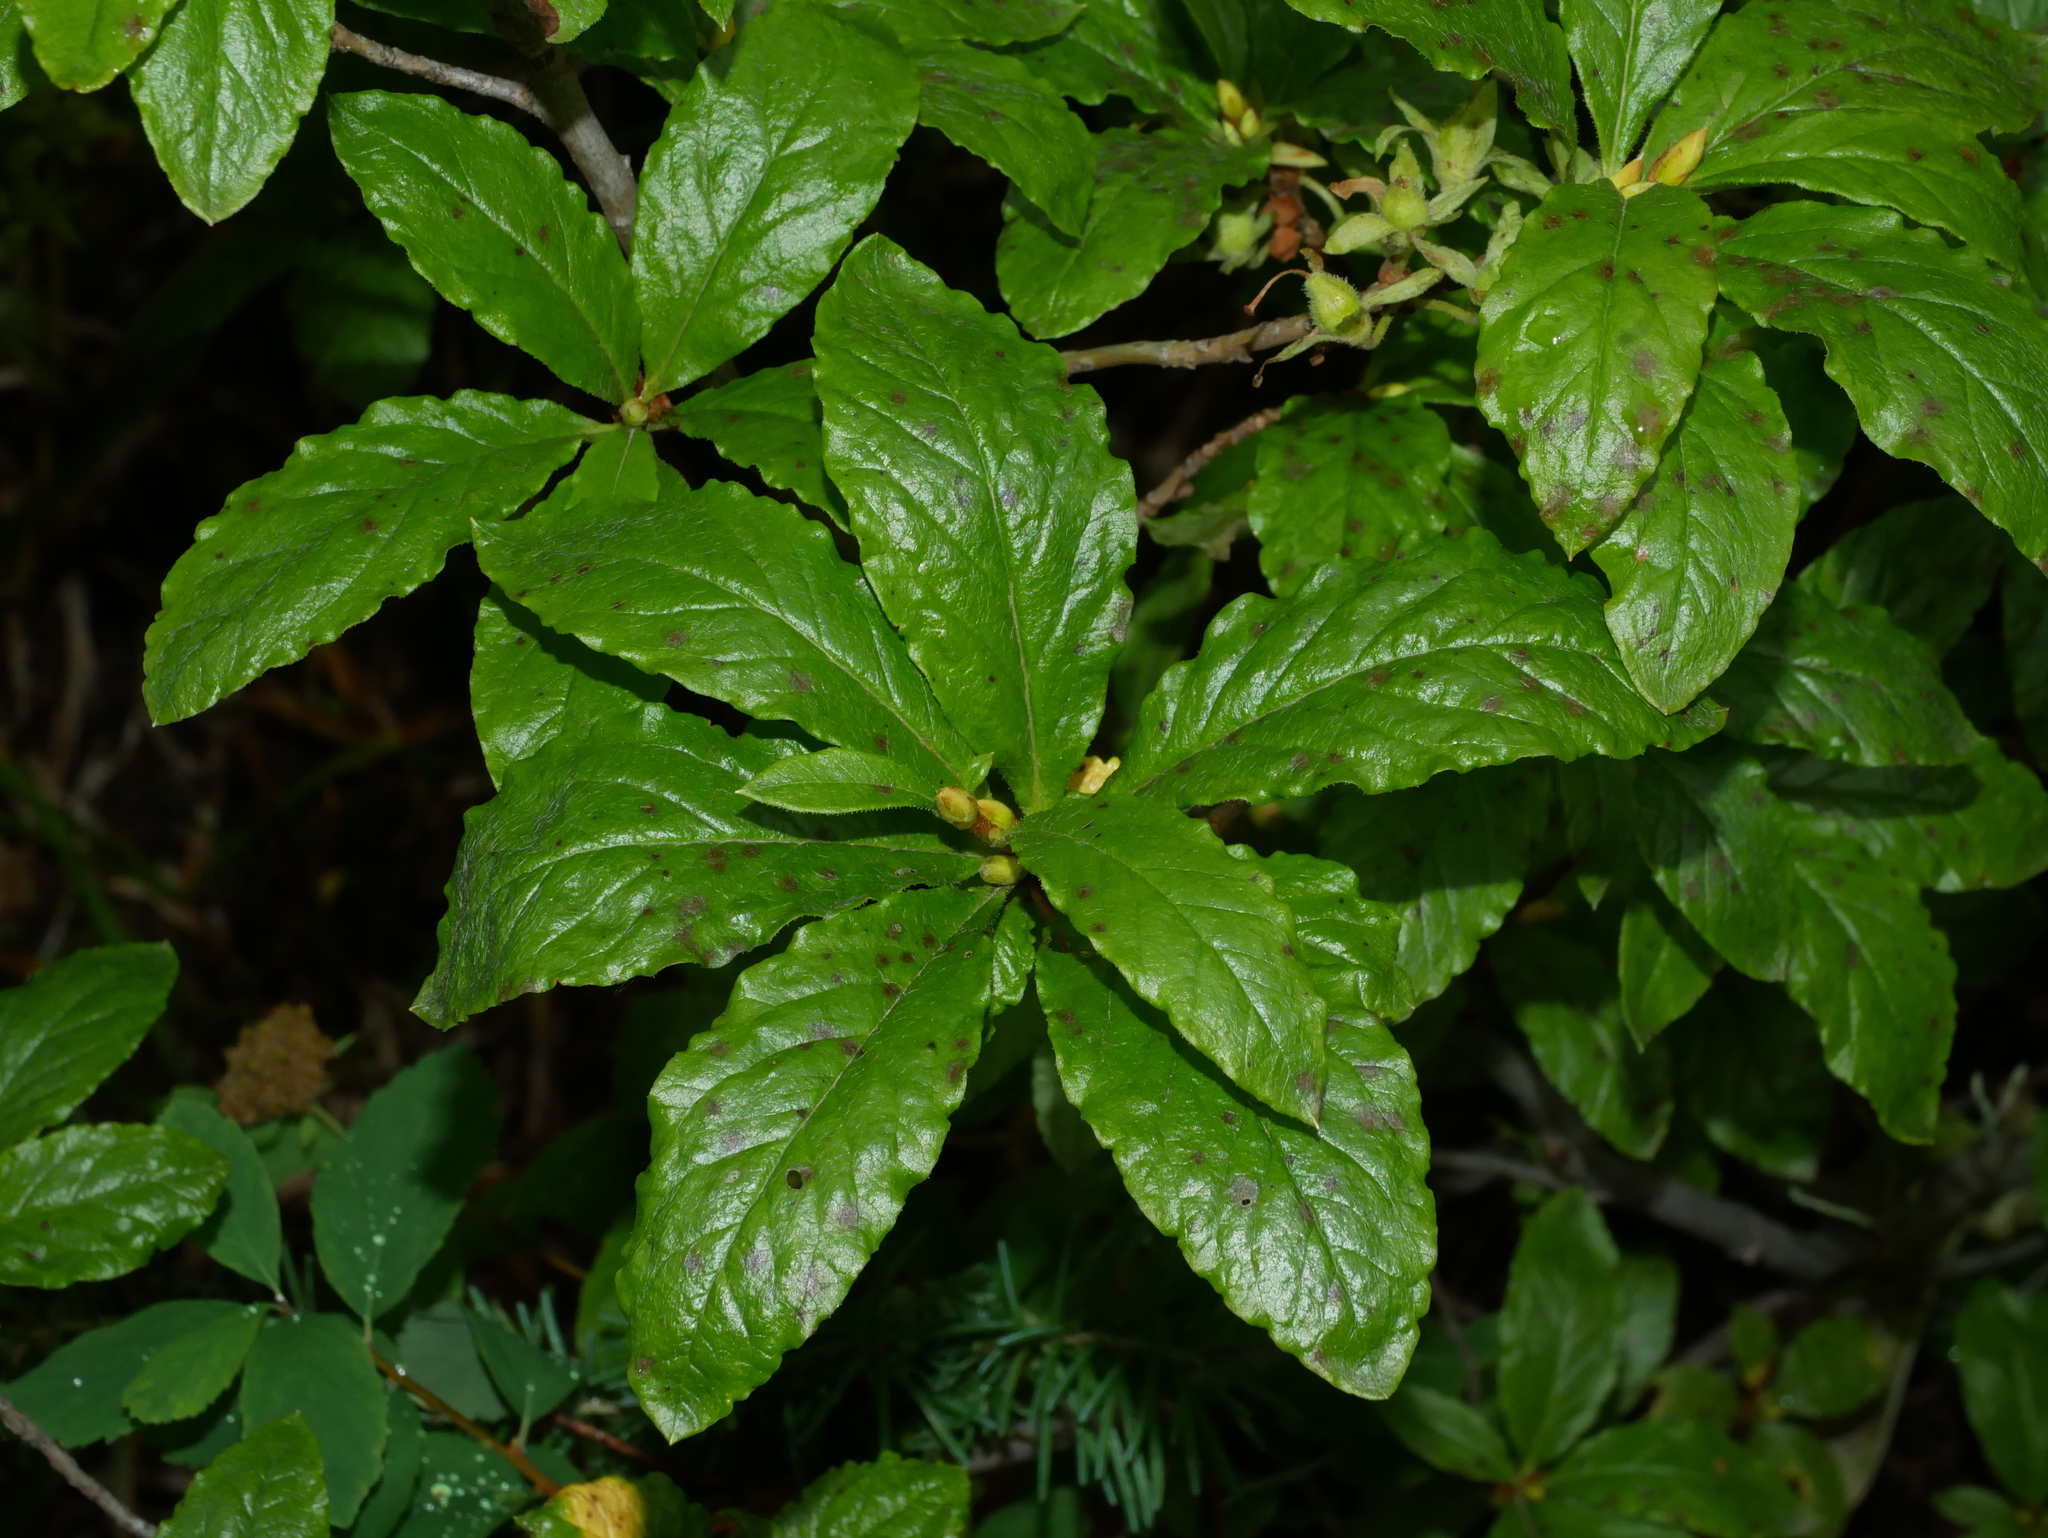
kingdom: Plantae
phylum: Tracheophyta
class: Magnoliopsida
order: Ericales
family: Ericaceae
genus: Rhododendron
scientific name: Rhododendron albiflorum
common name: White rhododendron
